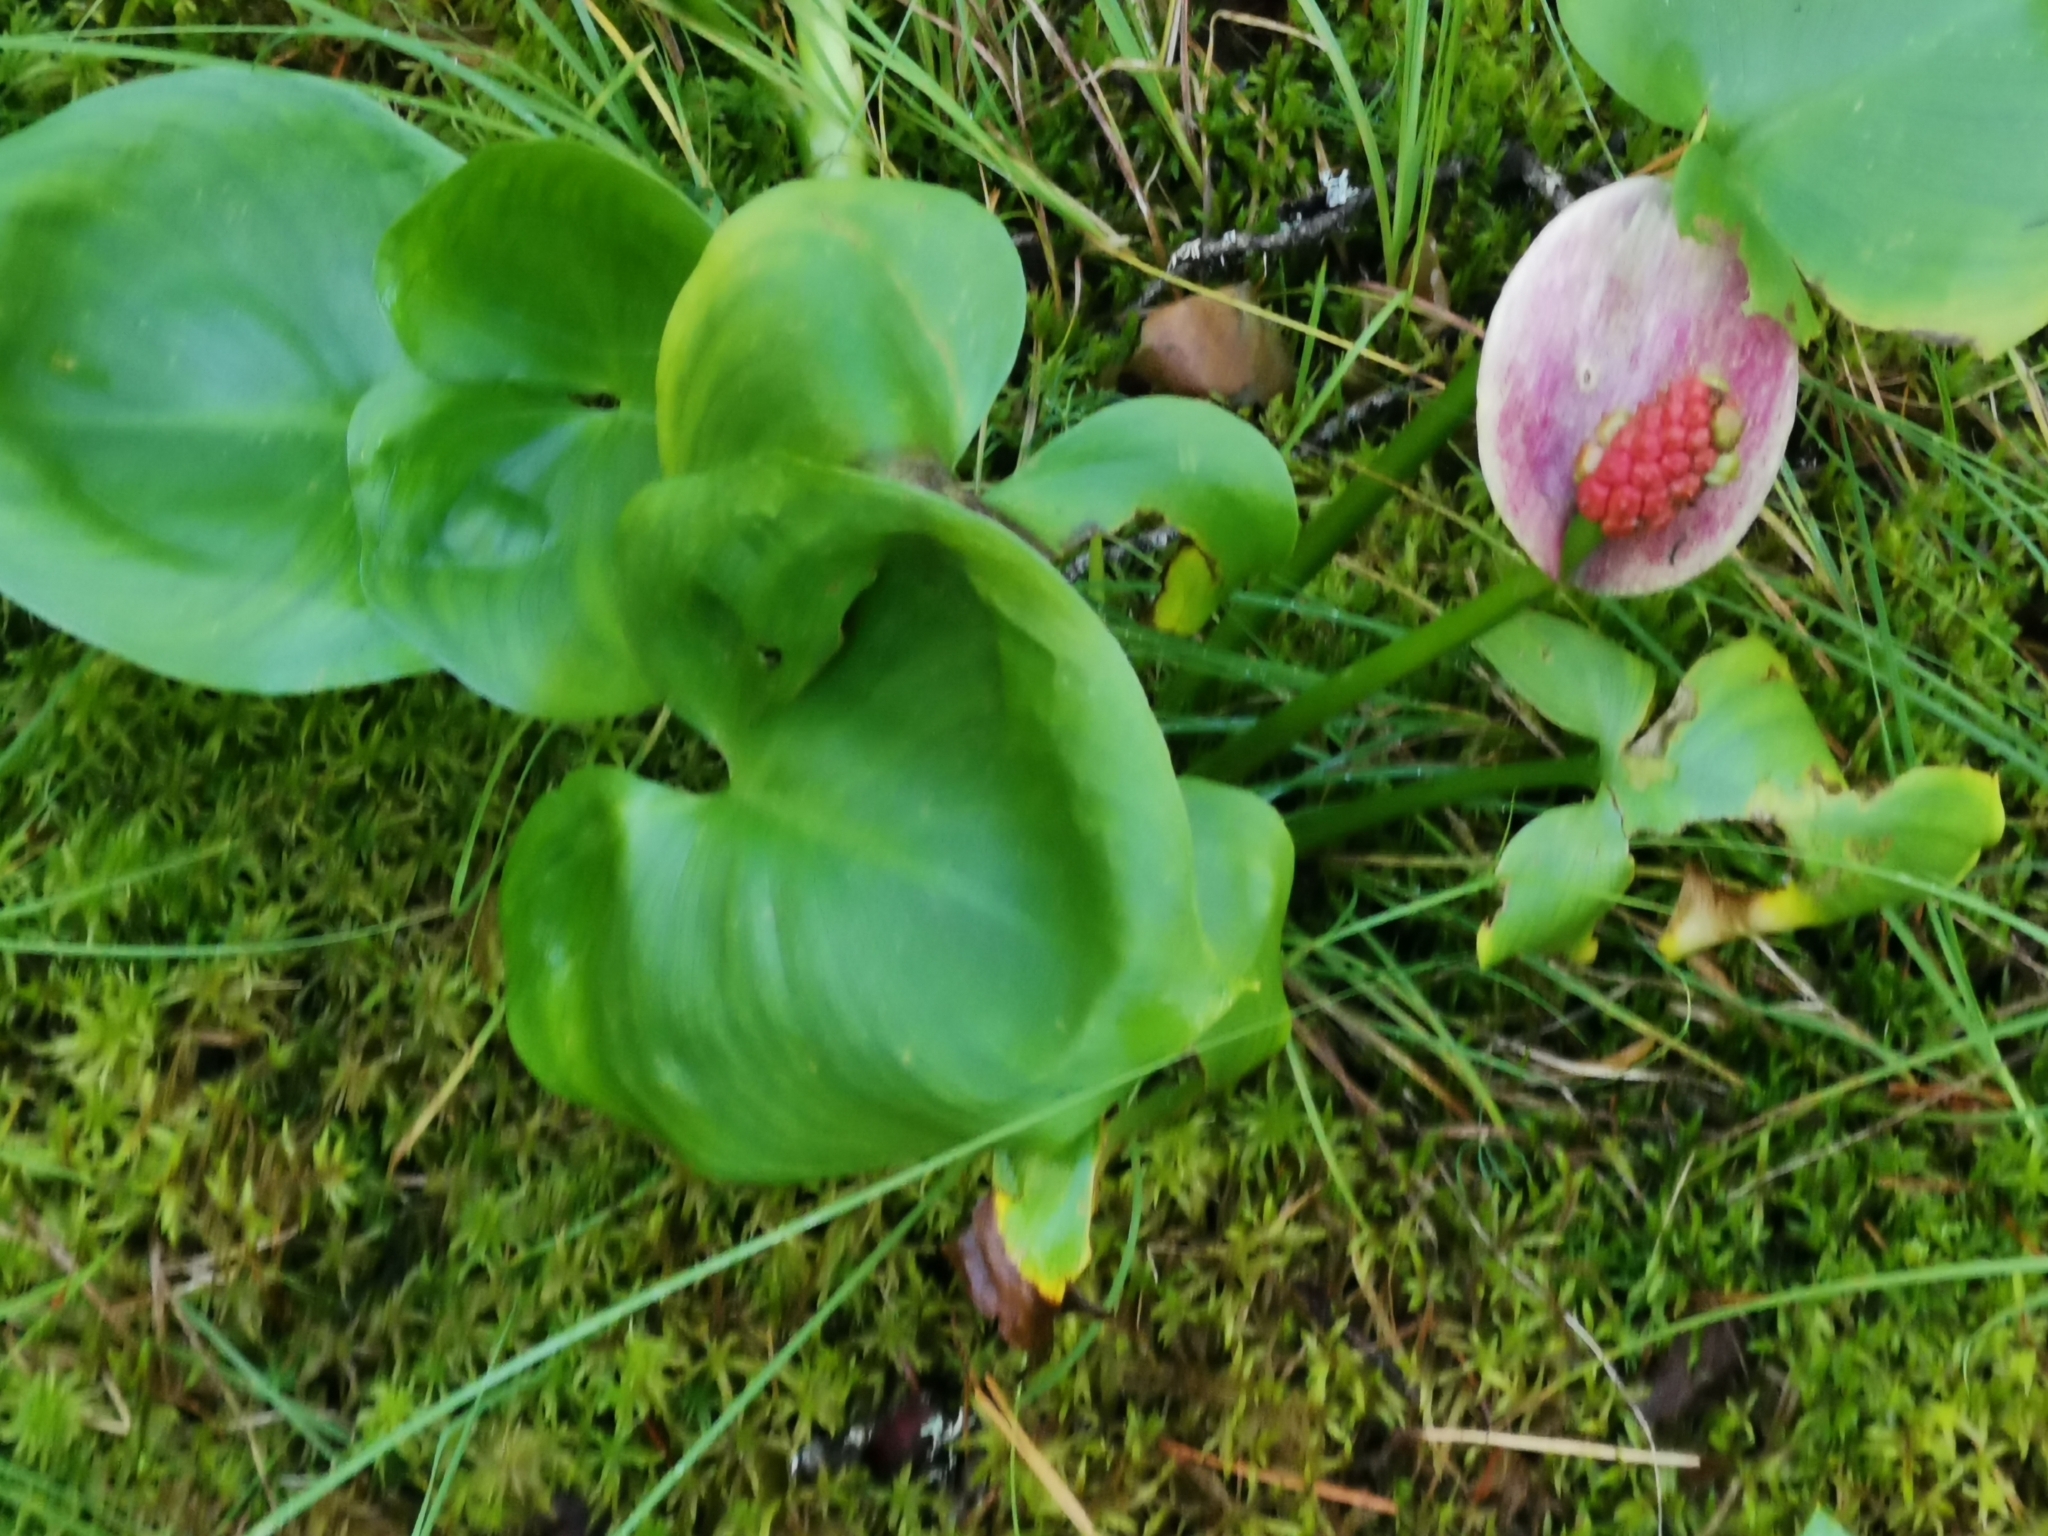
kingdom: Plantae
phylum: Tracheophyta
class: Liliopsida
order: Alismatales
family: Araceae
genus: Calla
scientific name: Calla palustris
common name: Bog arum
